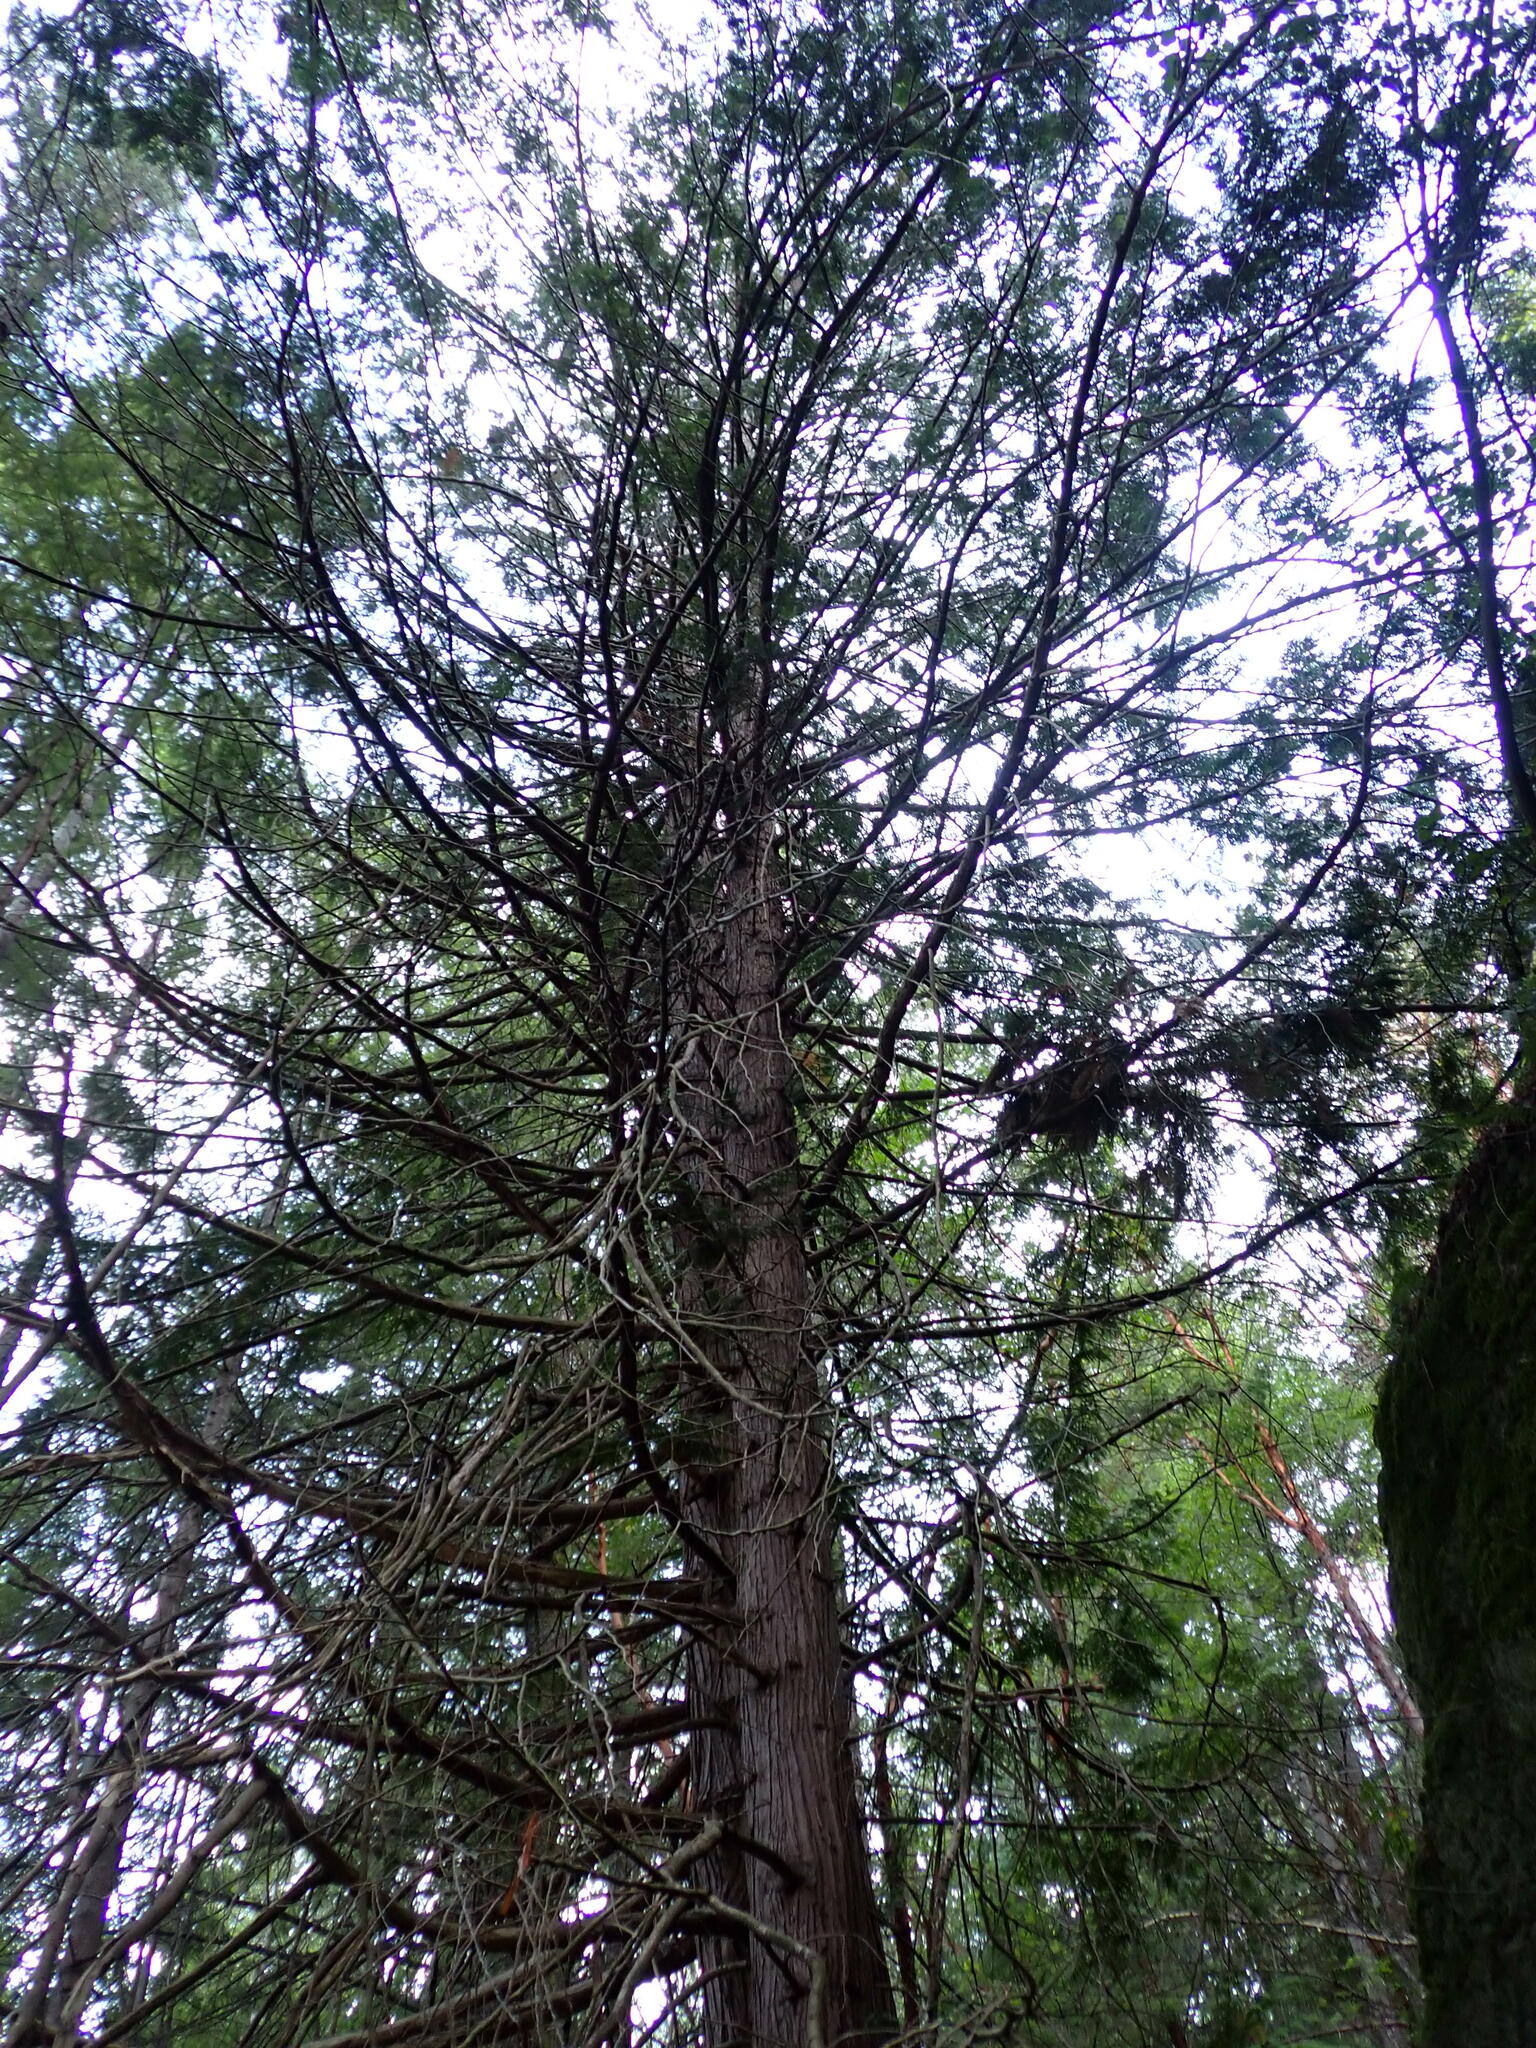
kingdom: Plantae
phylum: Tracheophyta
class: Pinopsida
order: Pinales
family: Cupressaceae
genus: Thuja
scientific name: Thuja plicata
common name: Western red-cedar
